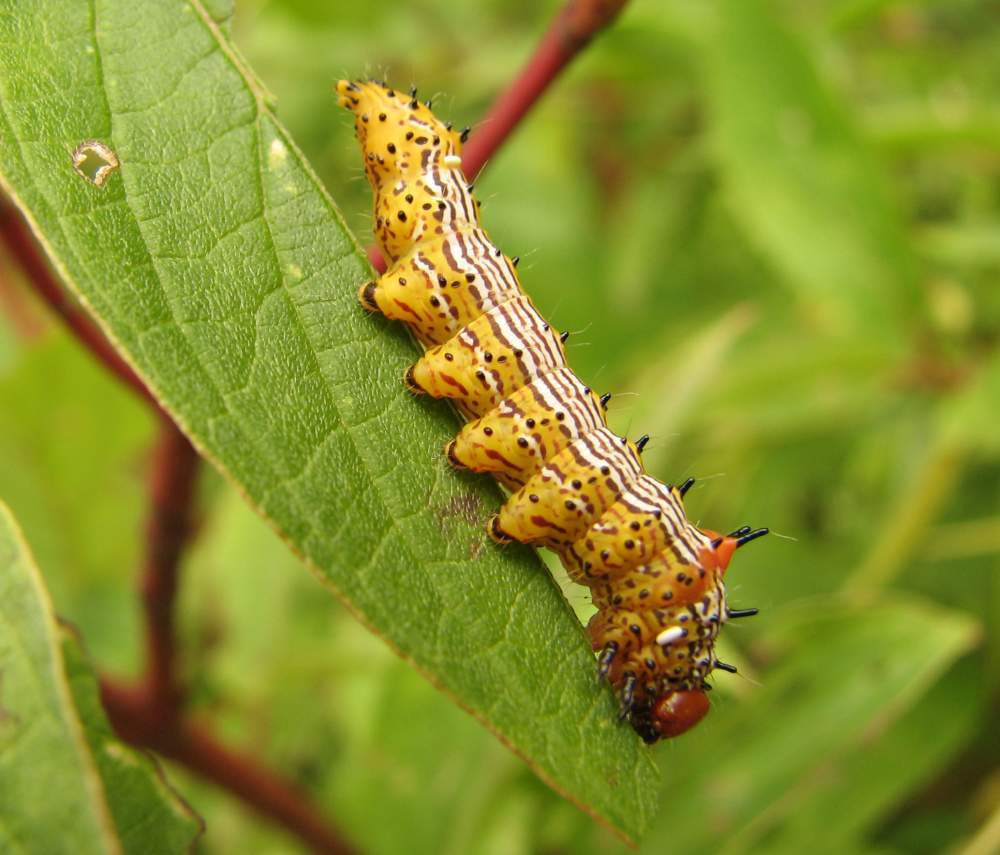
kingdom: Animalia
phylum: Arthropoda
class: Insecta
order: Lepidoptera
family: Notodontidae
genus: Schizura
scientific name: Schizura
